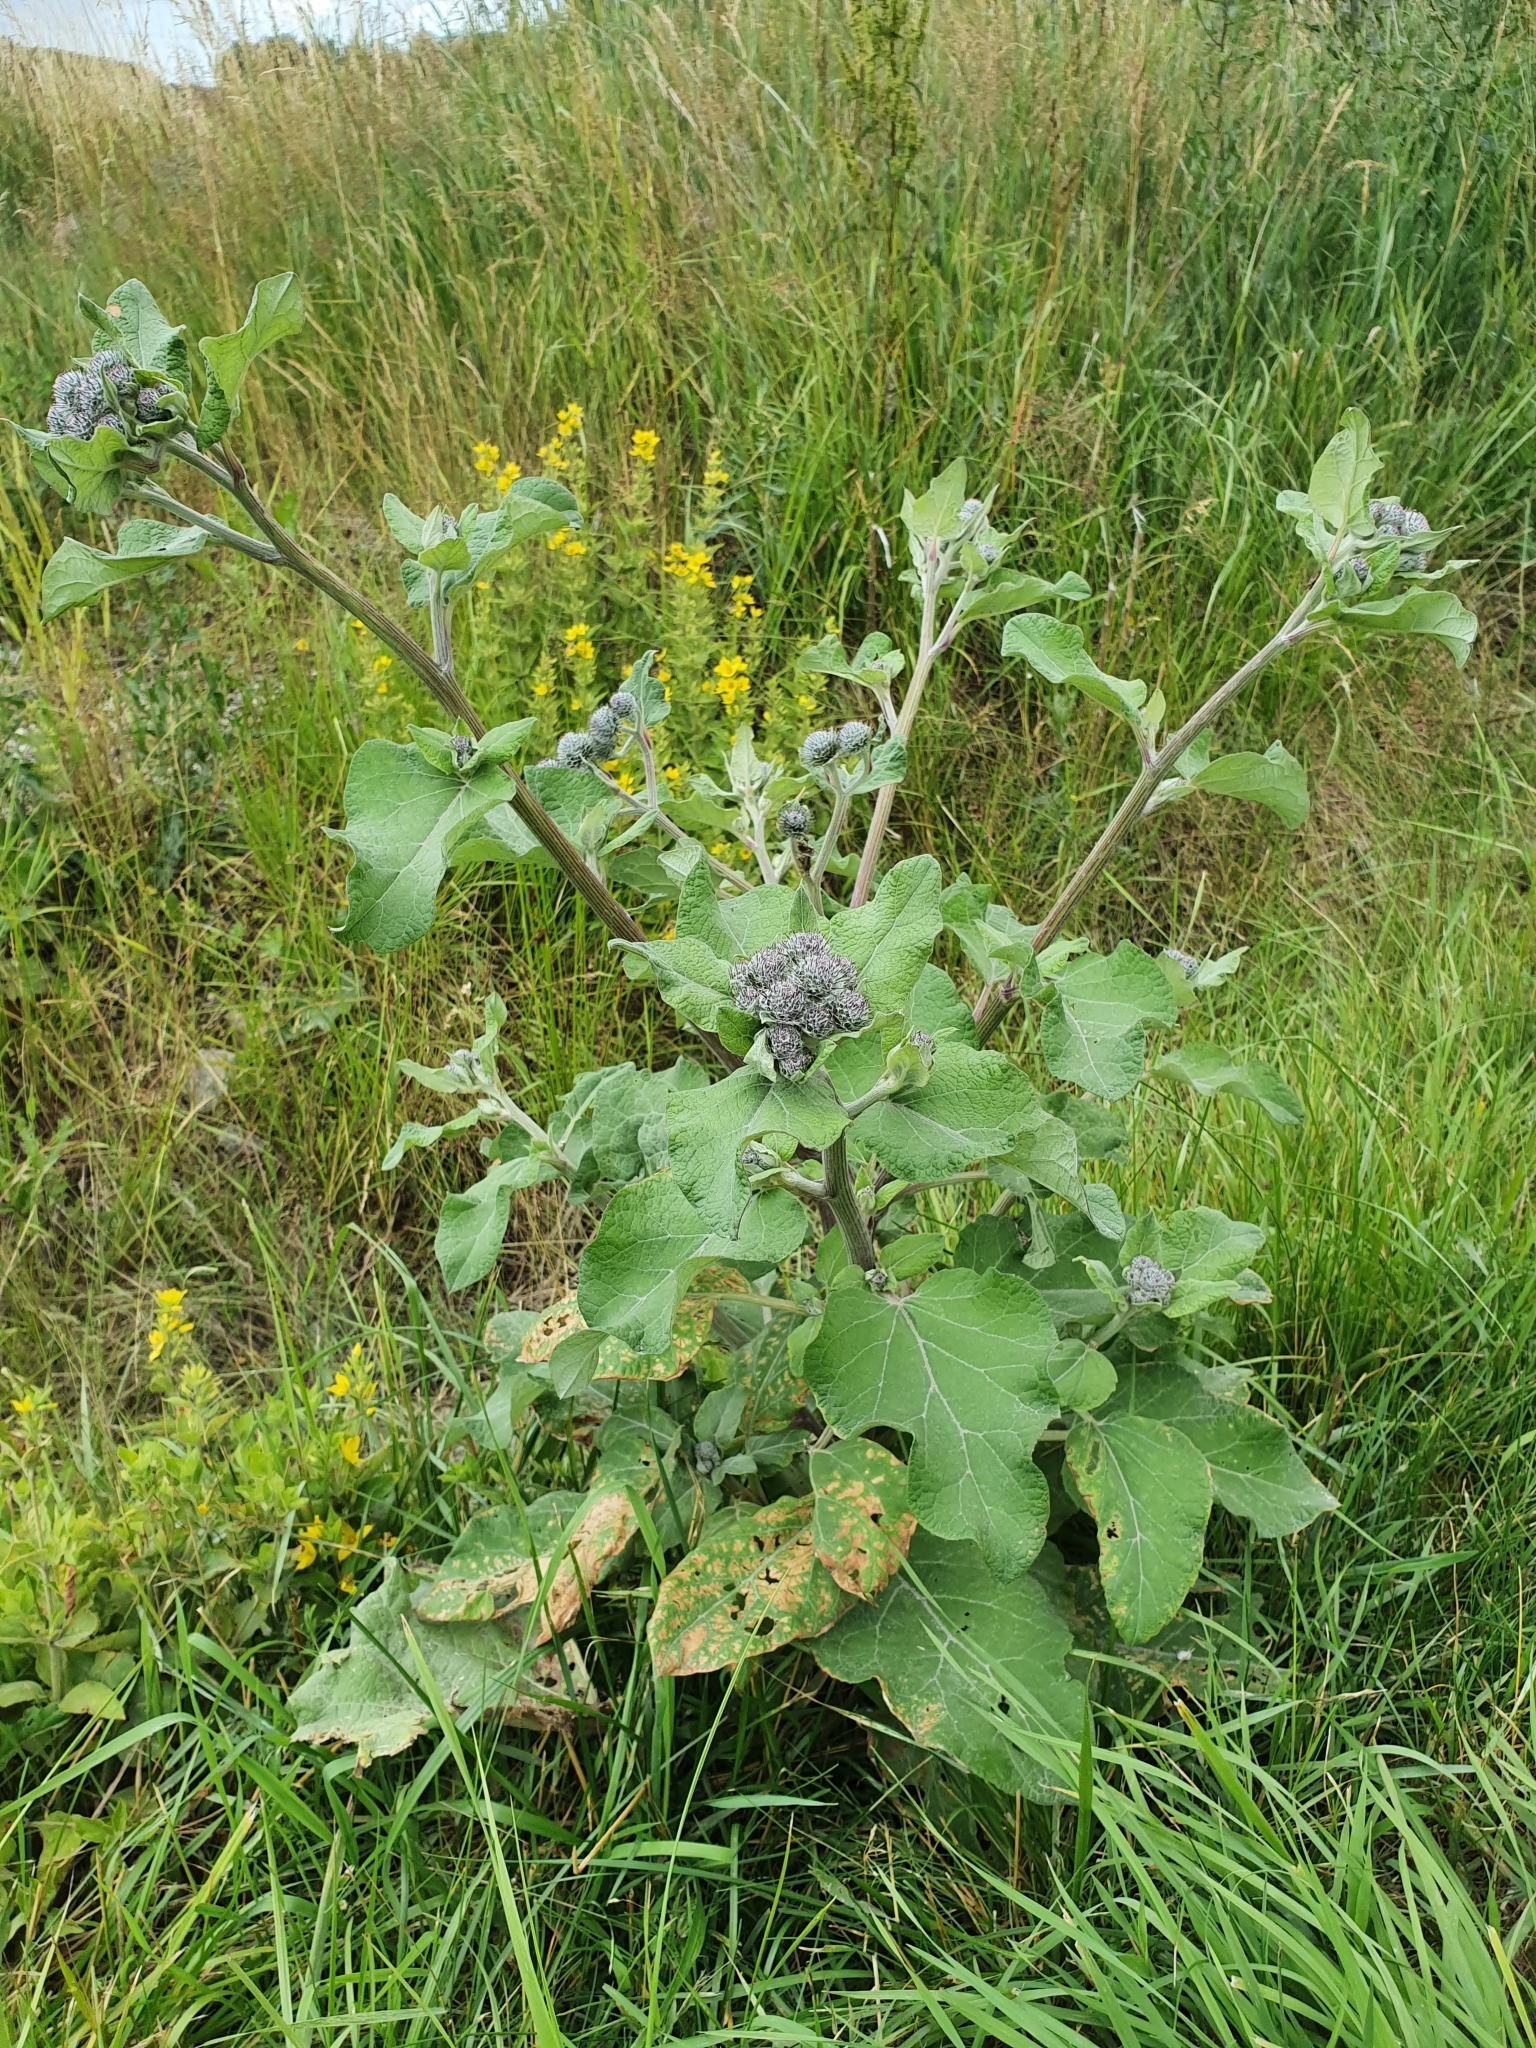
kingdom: Plantae
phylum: Tracheophyta
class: Magnoliopsida
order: Asterales
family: Asteraceae
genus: Arctium
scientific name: Arctium tomentosum
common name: Woolly burdock
